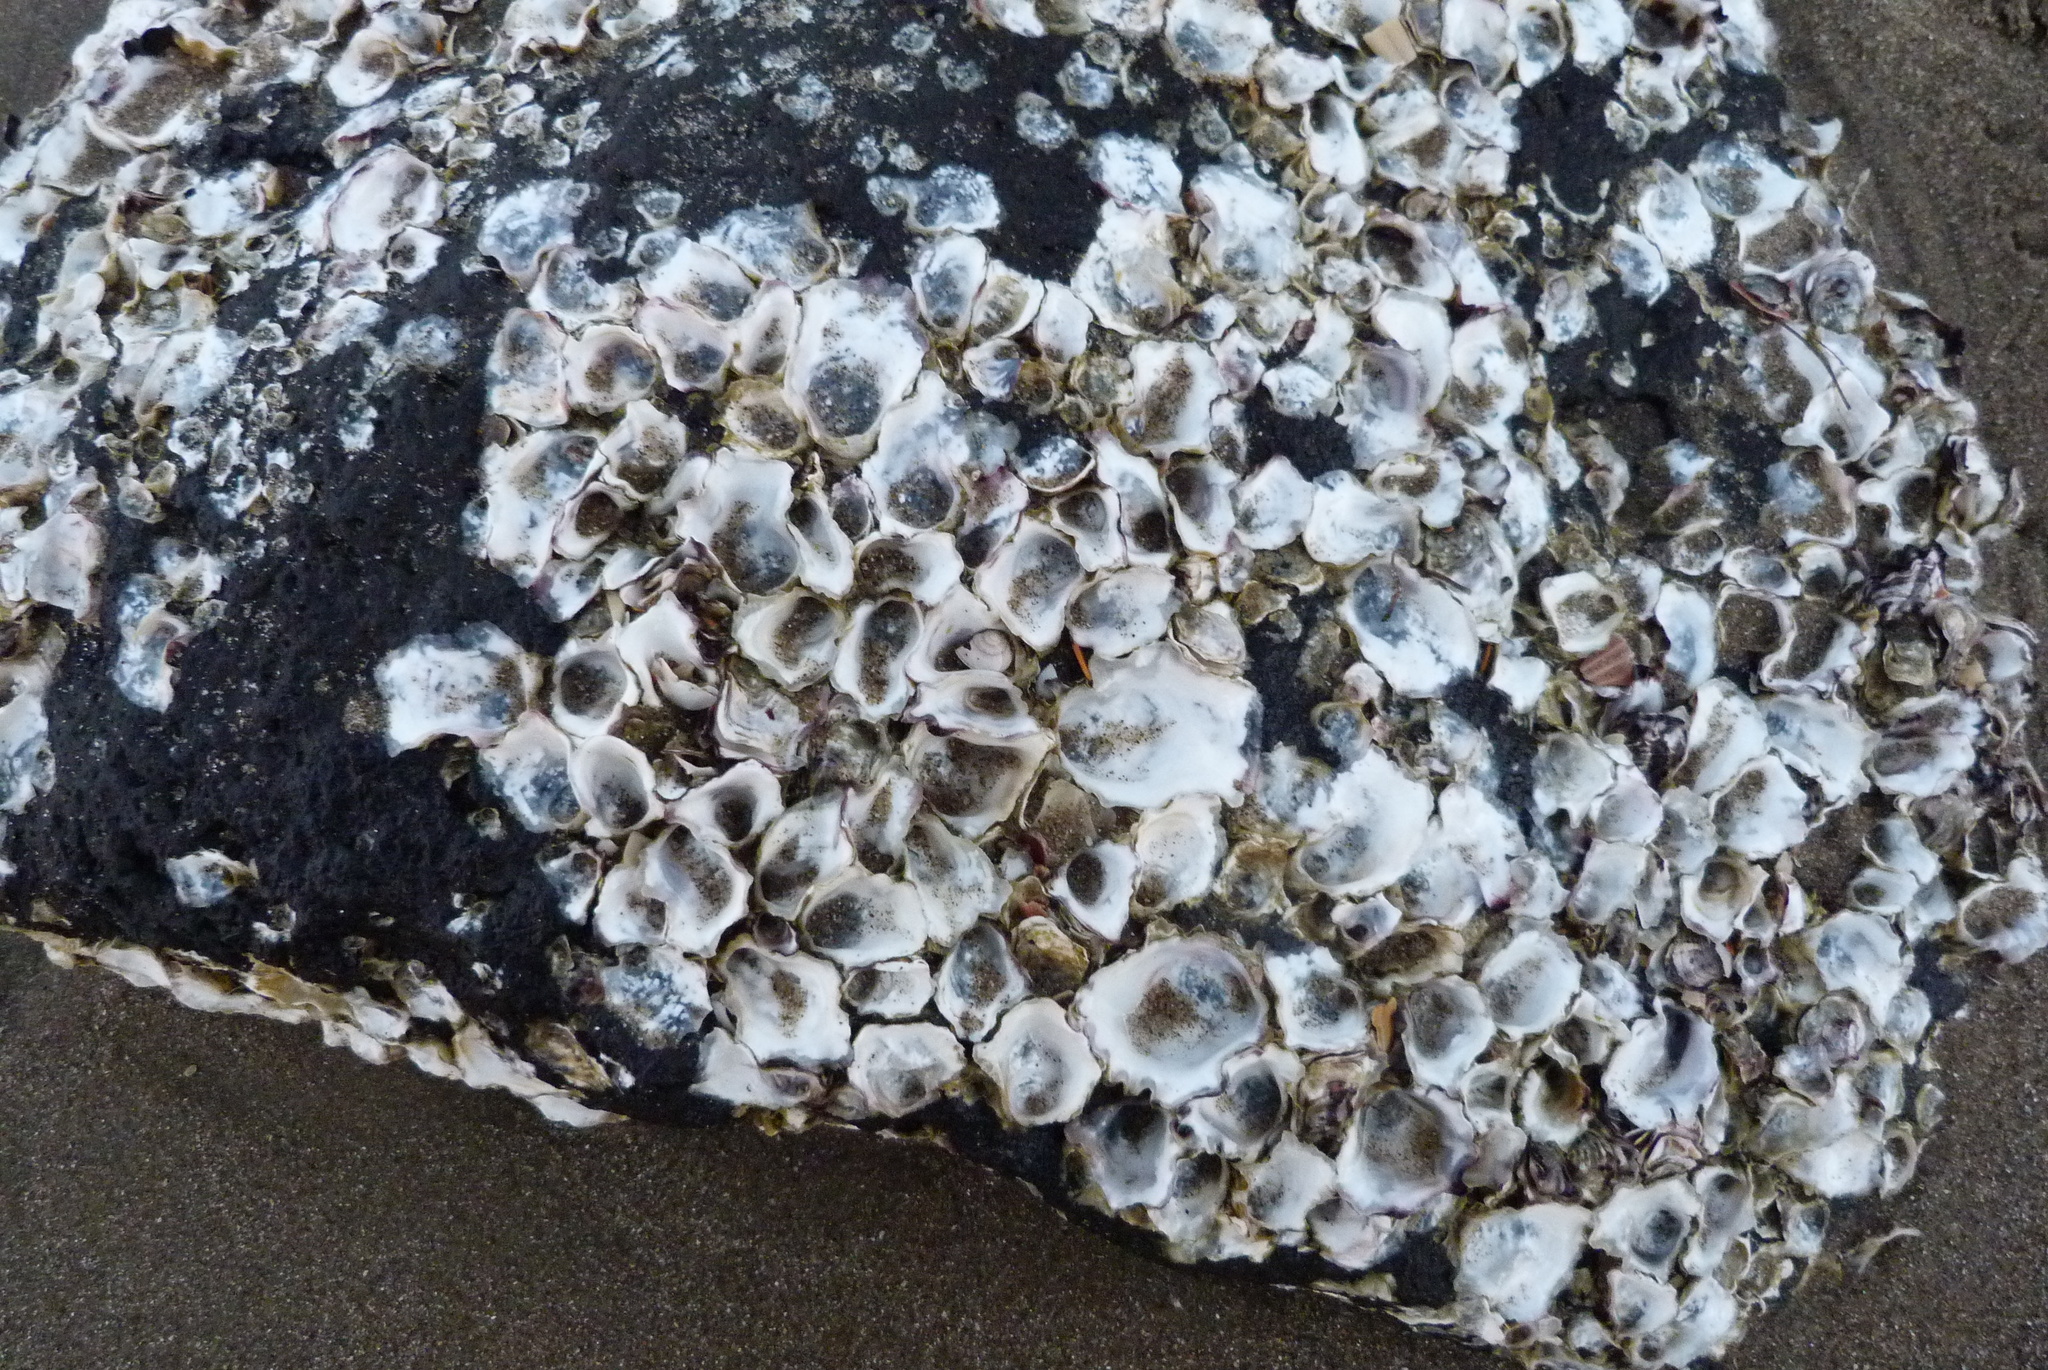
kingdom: Animalia
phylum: Mollusca
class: Bivalvia
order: Ostreida
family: Ostreidae
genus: Saccostrea
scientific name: Saccostrea glomerata
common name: Sydney cupped oyster
